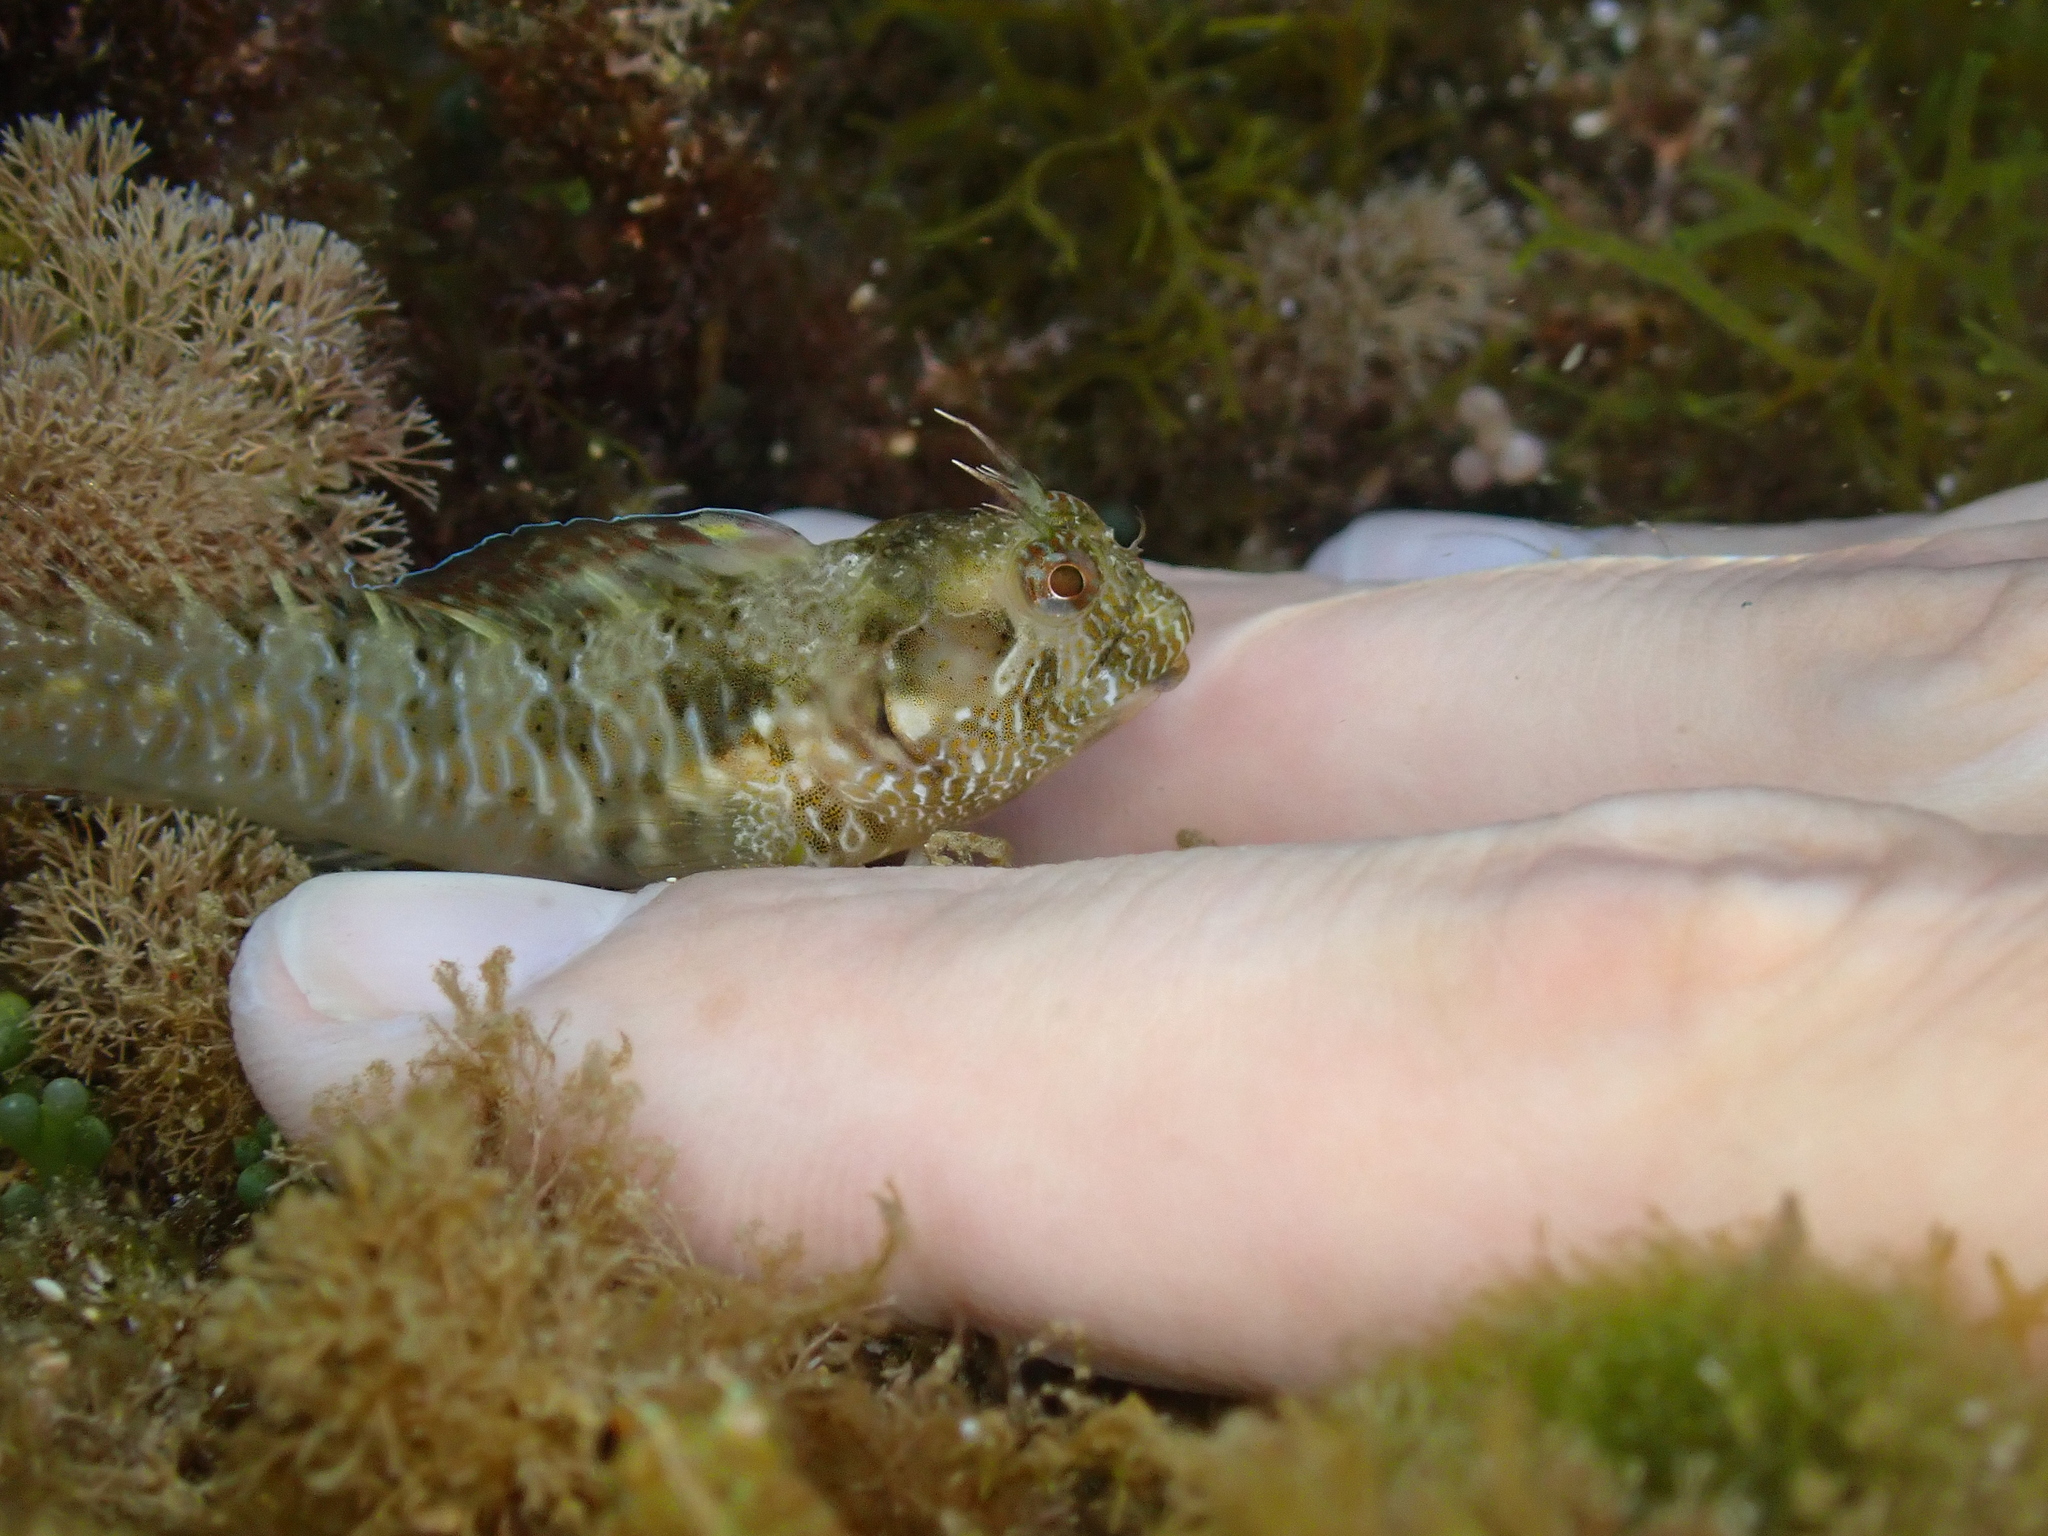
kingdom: Animalia
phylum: Chordata
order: Perciformes
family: Blenniidae
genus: Parablennius
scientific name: Parablennius incognitus
